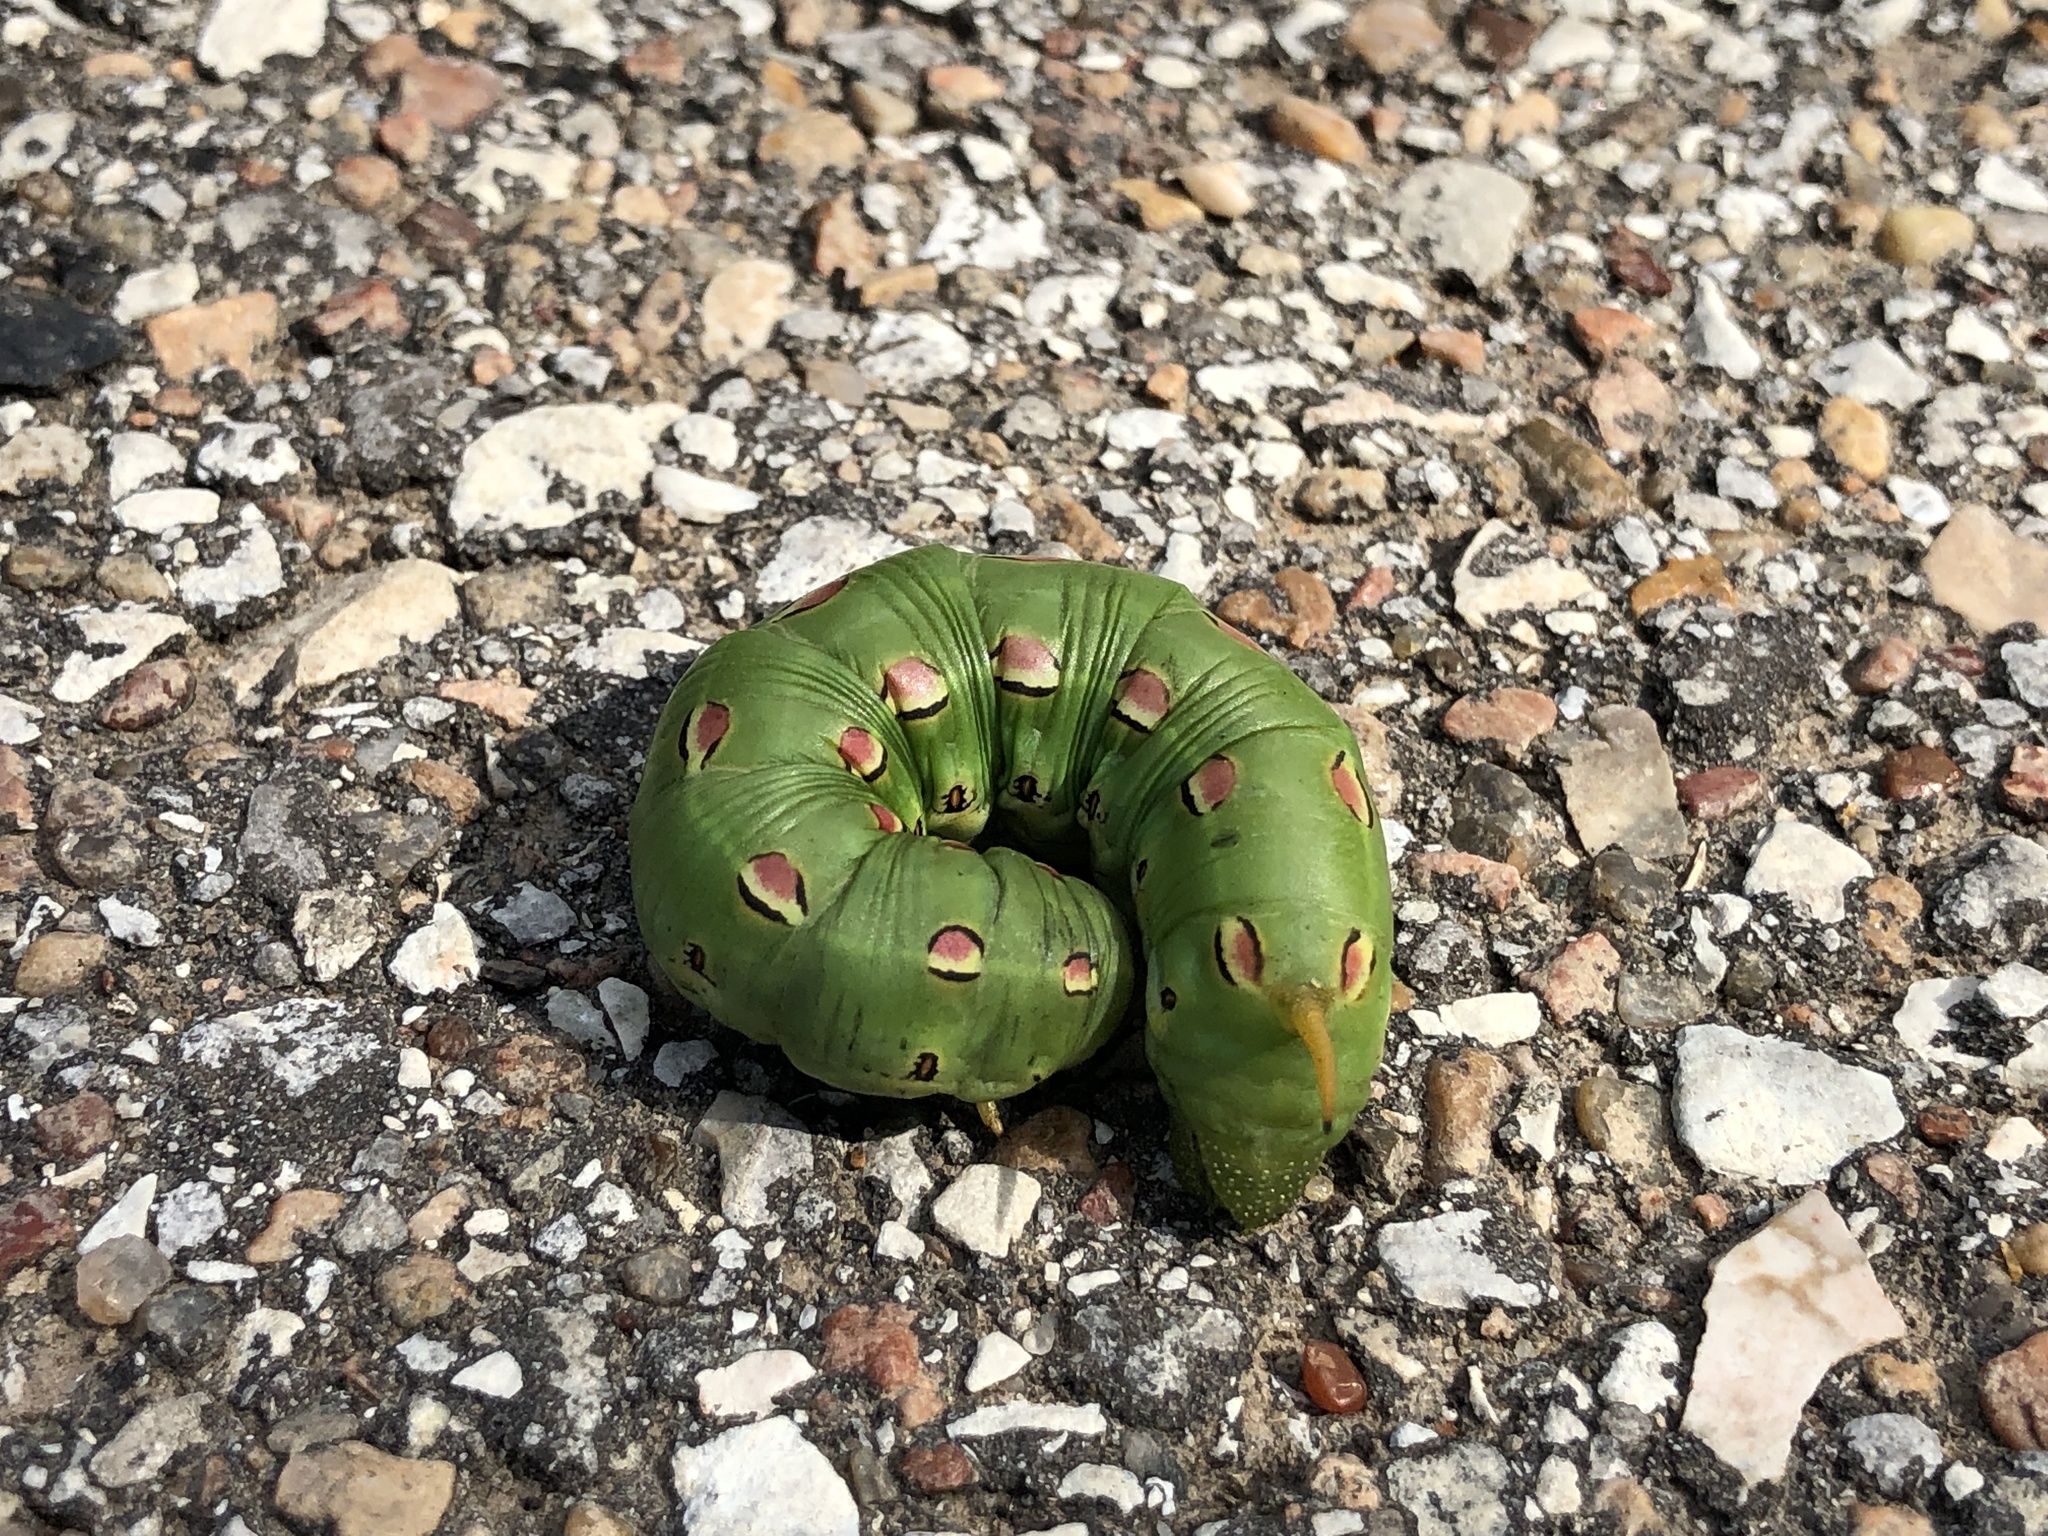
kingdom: Animalia
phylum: Arthropoda
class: Insecta
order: Lepidoptera
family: Sphingidae
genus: Hyles
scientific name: Hyles lineata
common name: White-lined sphinx
